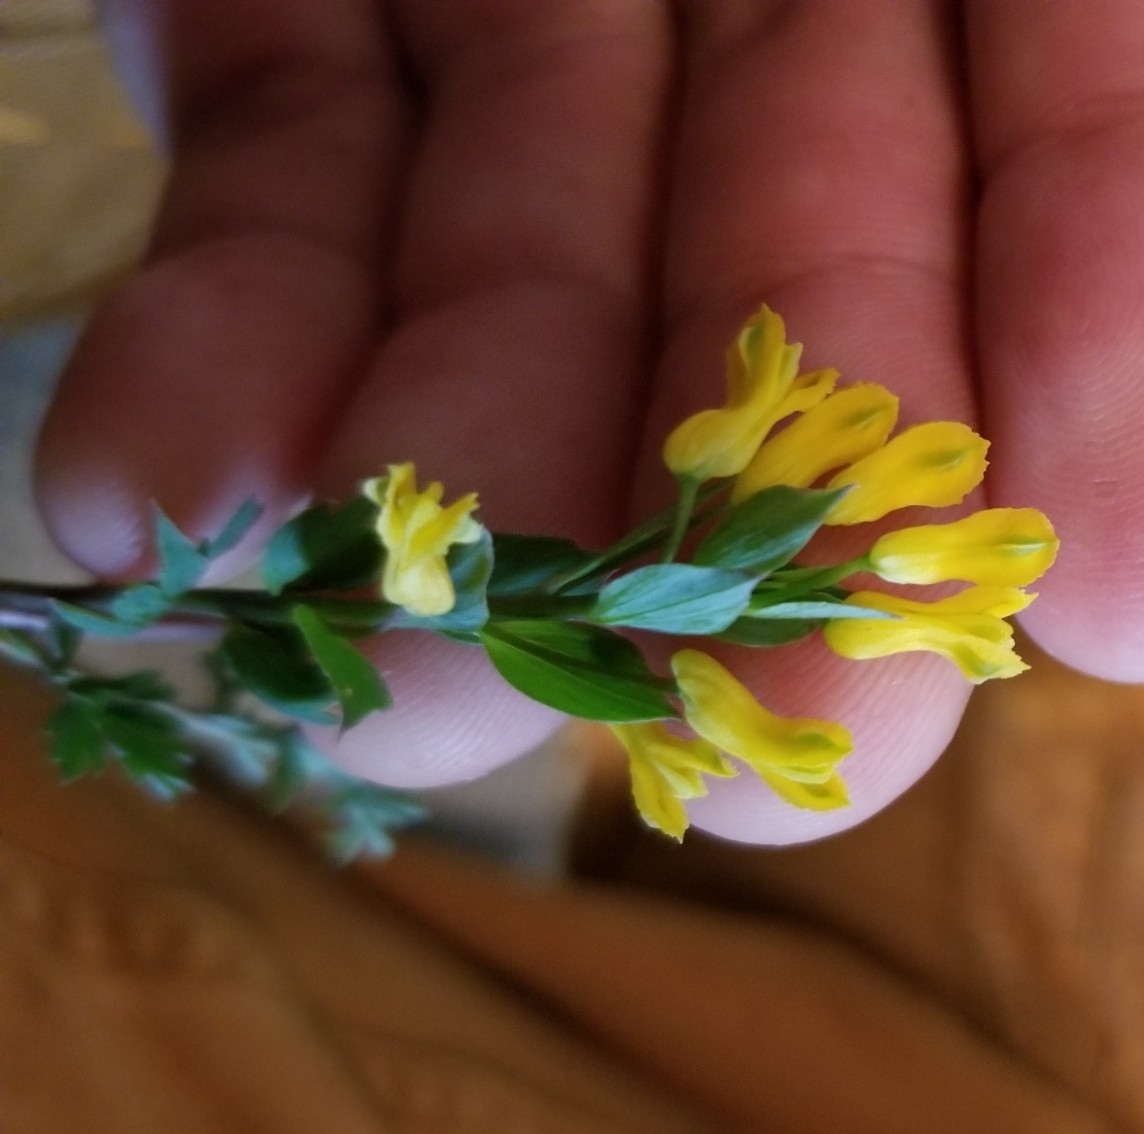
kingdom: Plantae
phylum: Tracheophyta
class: Magnoliopsida
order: Ranunculales
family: Papaveraceae
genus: Corydalis
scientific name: Corydalis flavula
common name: Yellow corydalis
